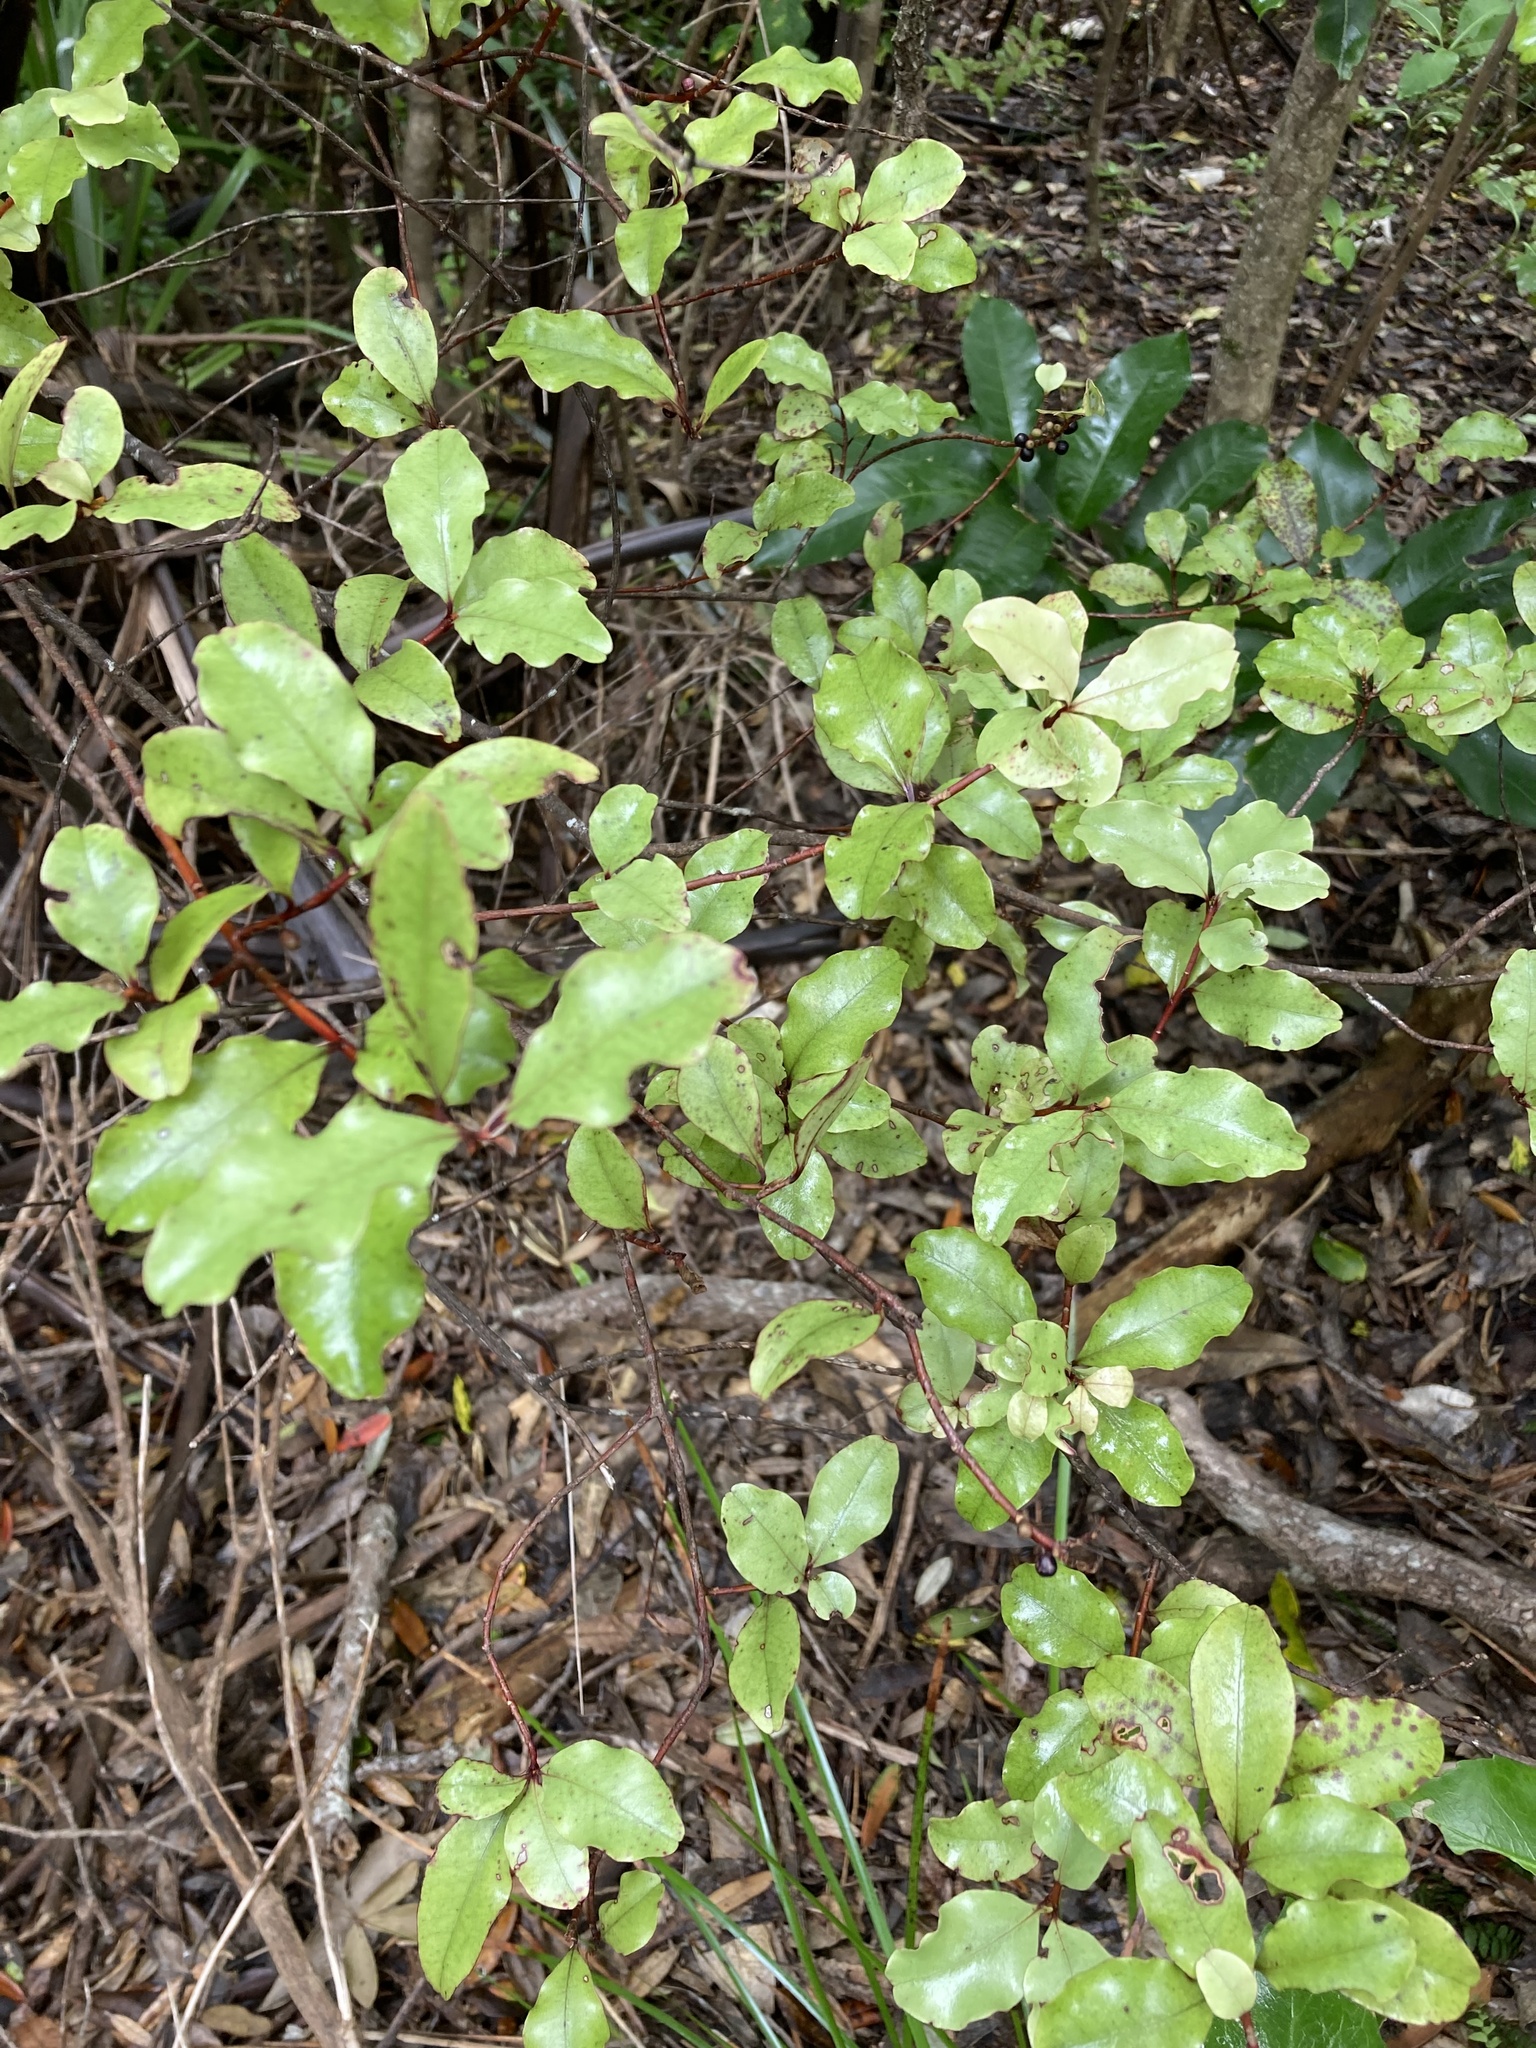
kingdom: Plantae
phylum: Tracheophyta
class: Magnoliopsida
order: Ericales
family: Primulaceae
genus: Myrsine
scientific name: Myrsine australis
